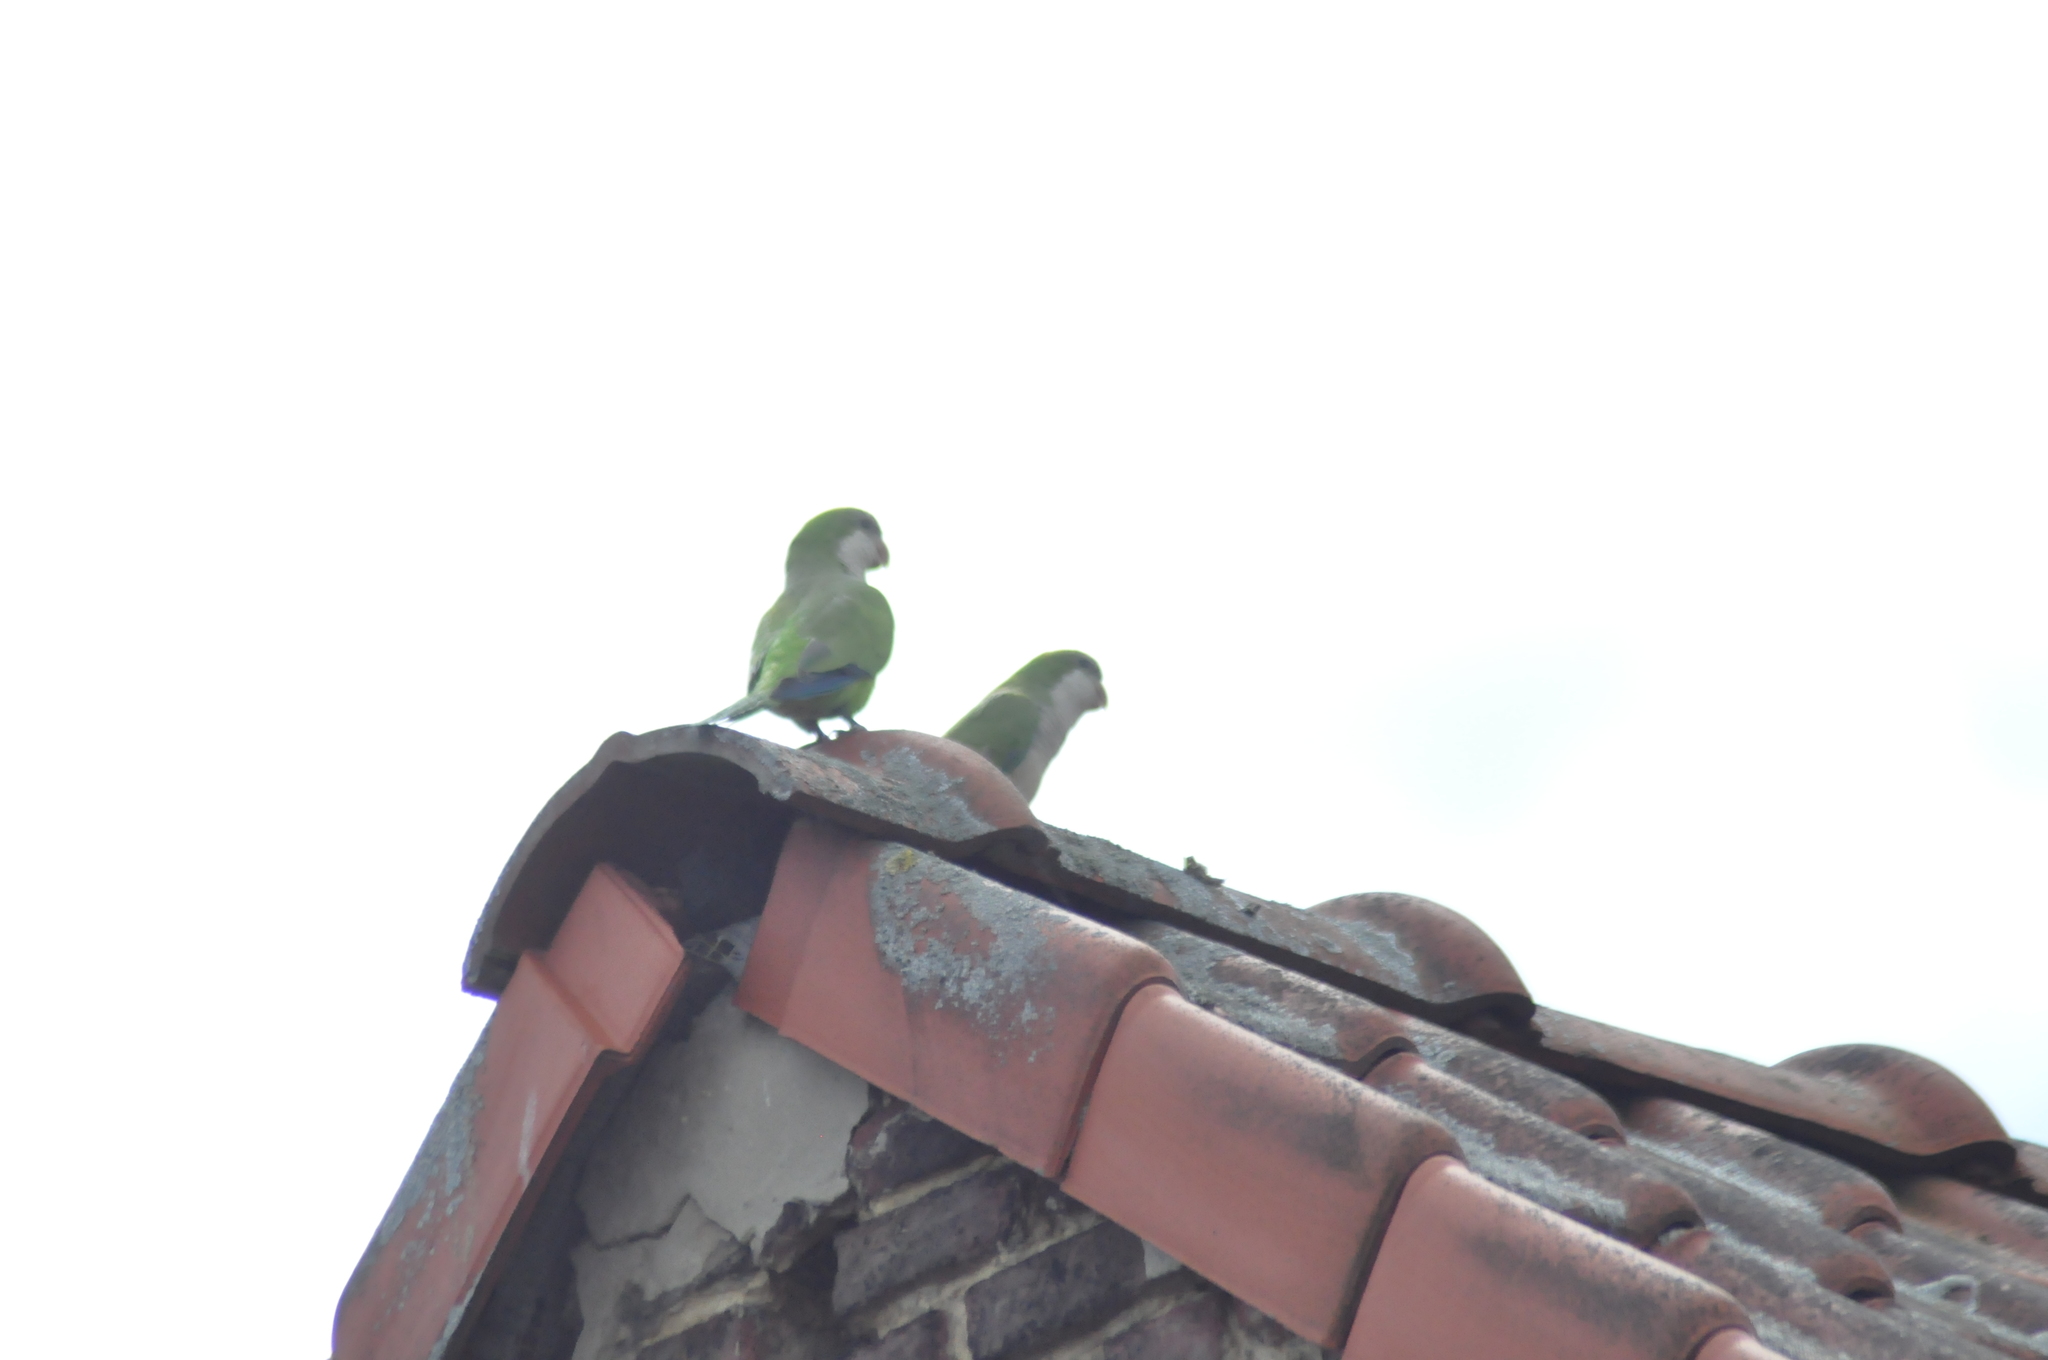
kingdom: Animalia
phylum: Chordata
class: Aves
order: Psittaciformes
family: Psittacidae
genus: Myiopsitta
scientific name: Myiopsitta monachus
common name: Monk parakeet
